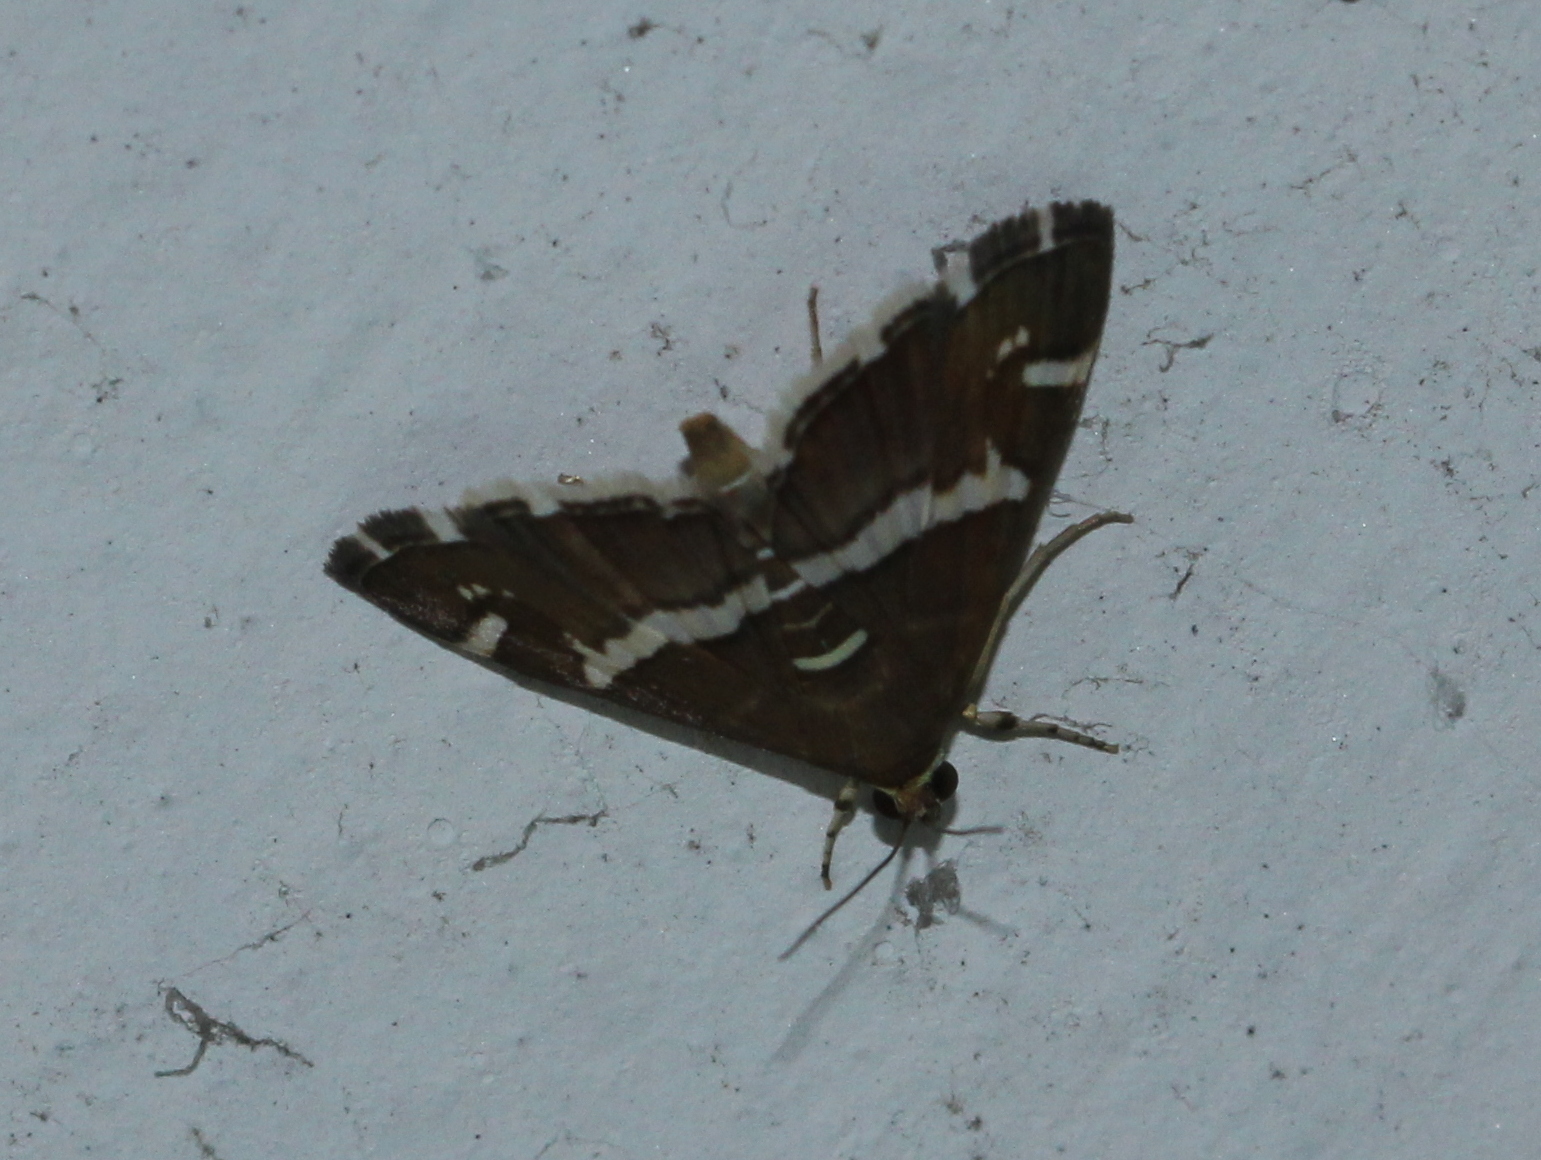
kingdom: Animalia
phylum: Arthropoda
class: Insecta
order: Lepidoptera
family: Crambidae
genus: Spoladea
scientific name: Spoladea recurvalis
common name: Beet webworm moth
